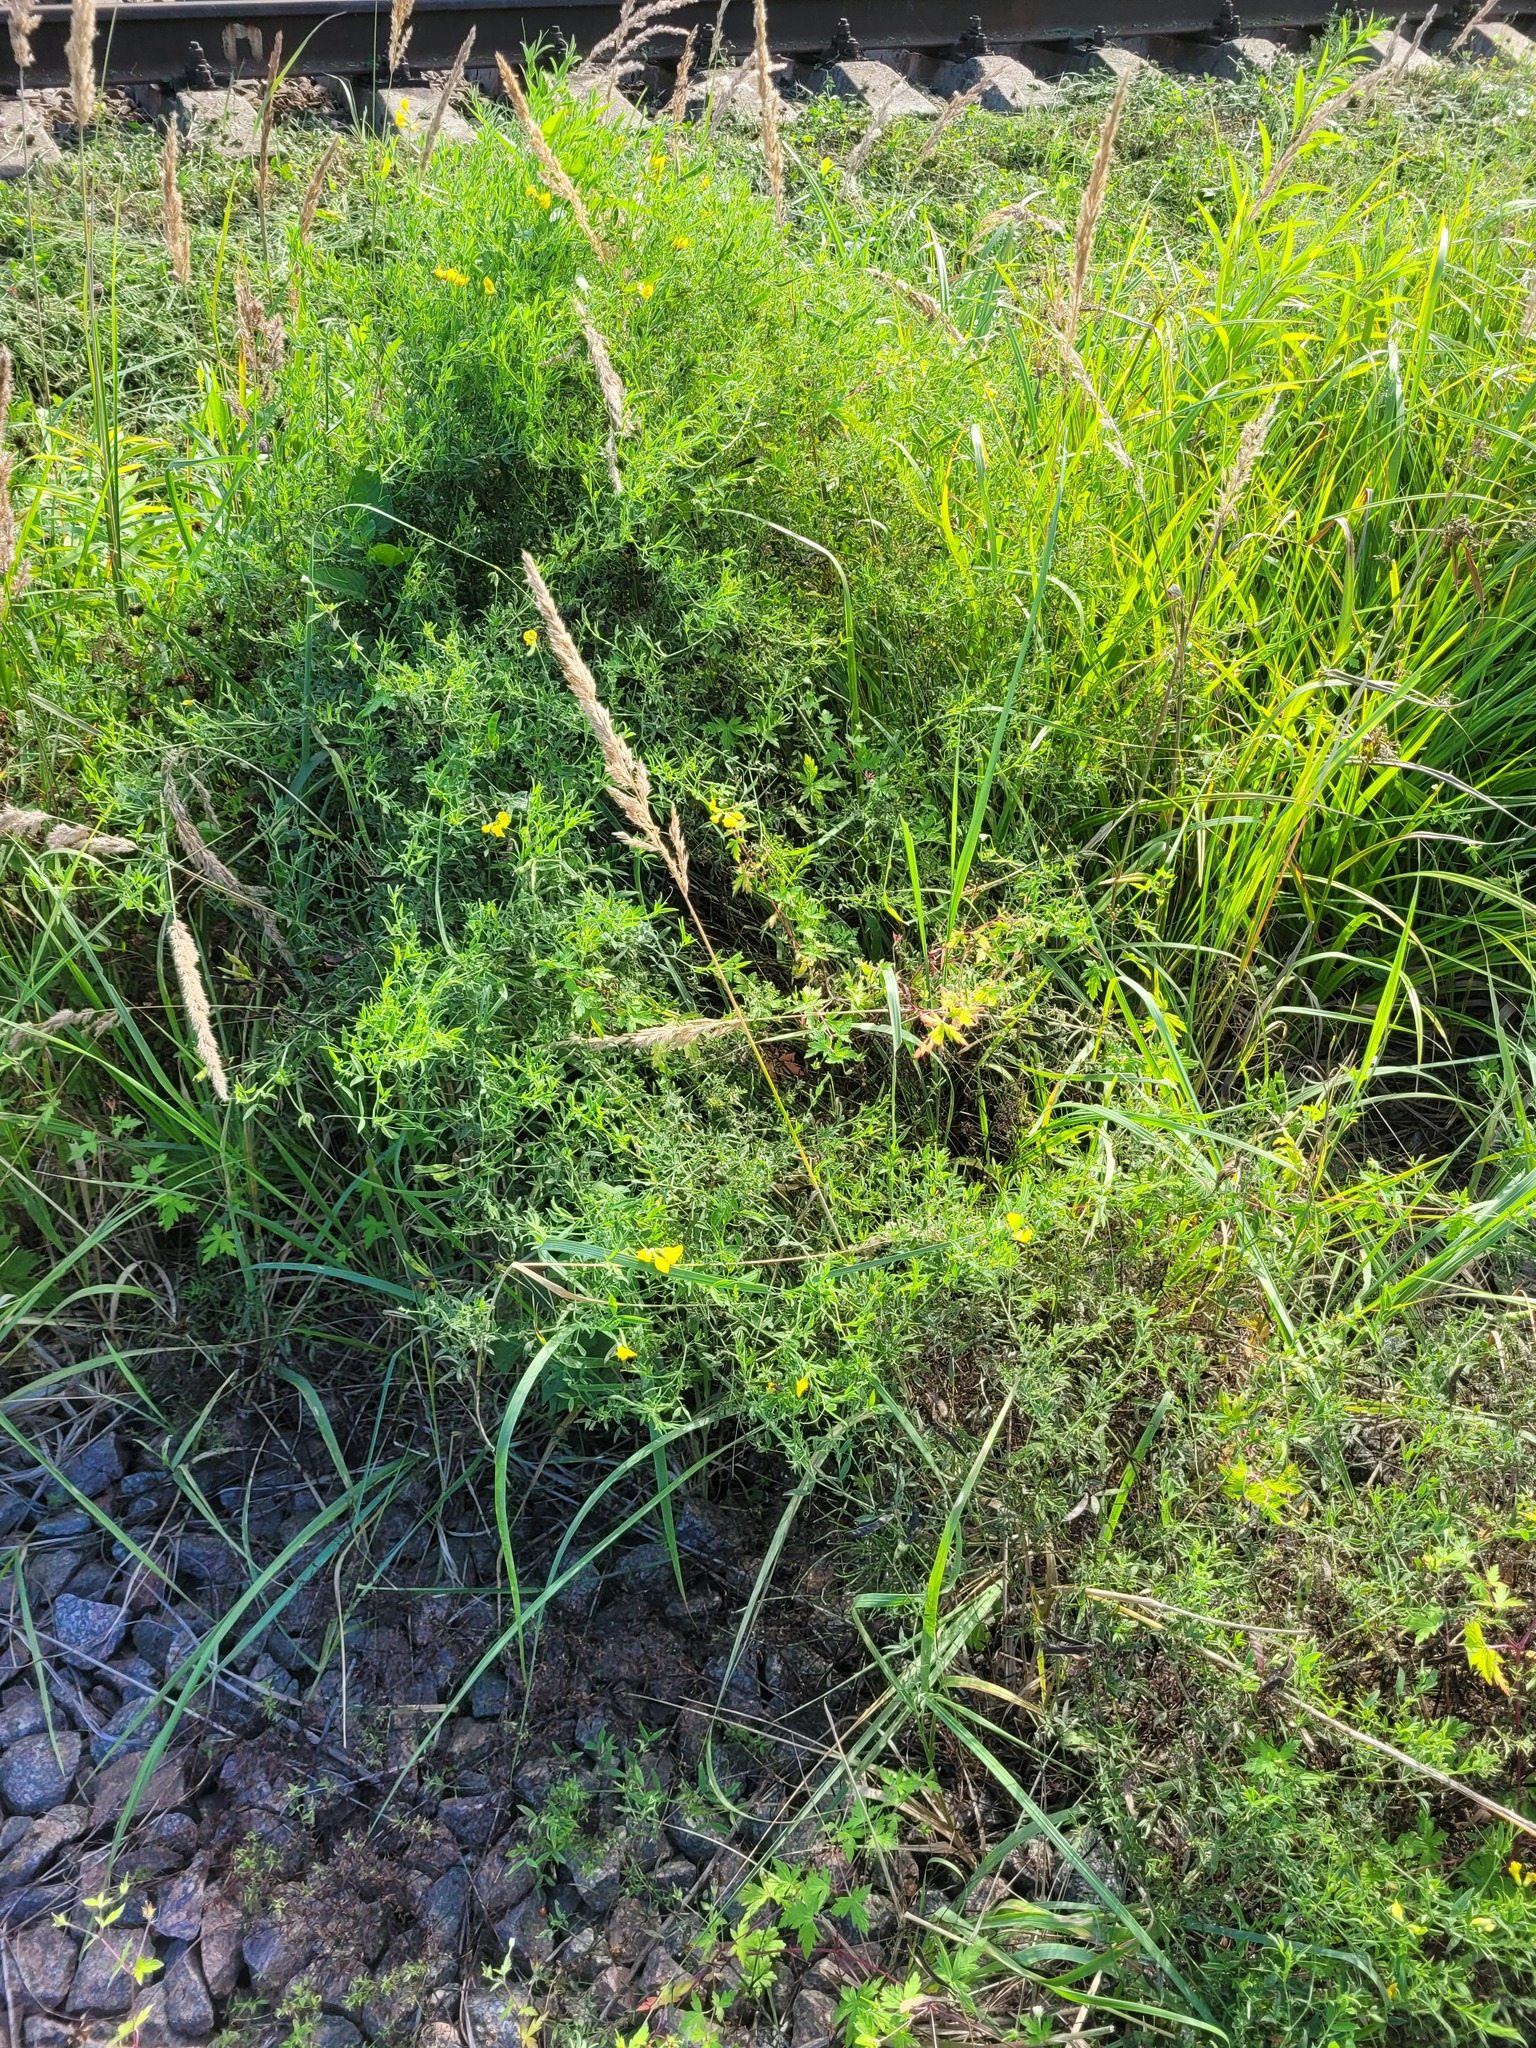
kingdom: Plantae
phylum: Tracheophyta
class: Magnoliopsida
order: Fabales
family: Fabaceae
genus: Lathyrus
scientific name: Lathyrus pratensis
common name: Meadow vetchling
